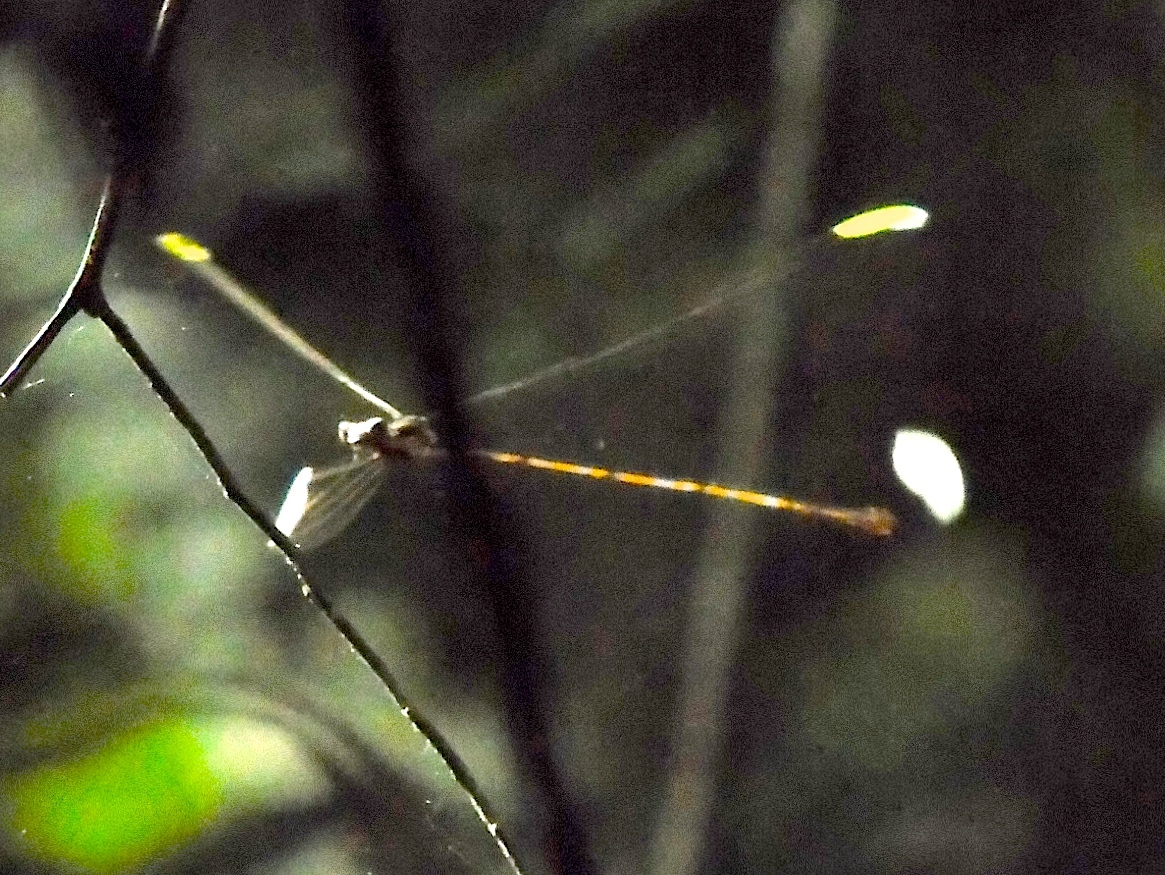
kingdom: Animalia
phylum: Arthropoda
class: Insecta
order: Odonata
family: Coenagrionidae
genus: Mecistogaster
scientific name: Mecistogaster ornata
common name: Ornate helicopter
